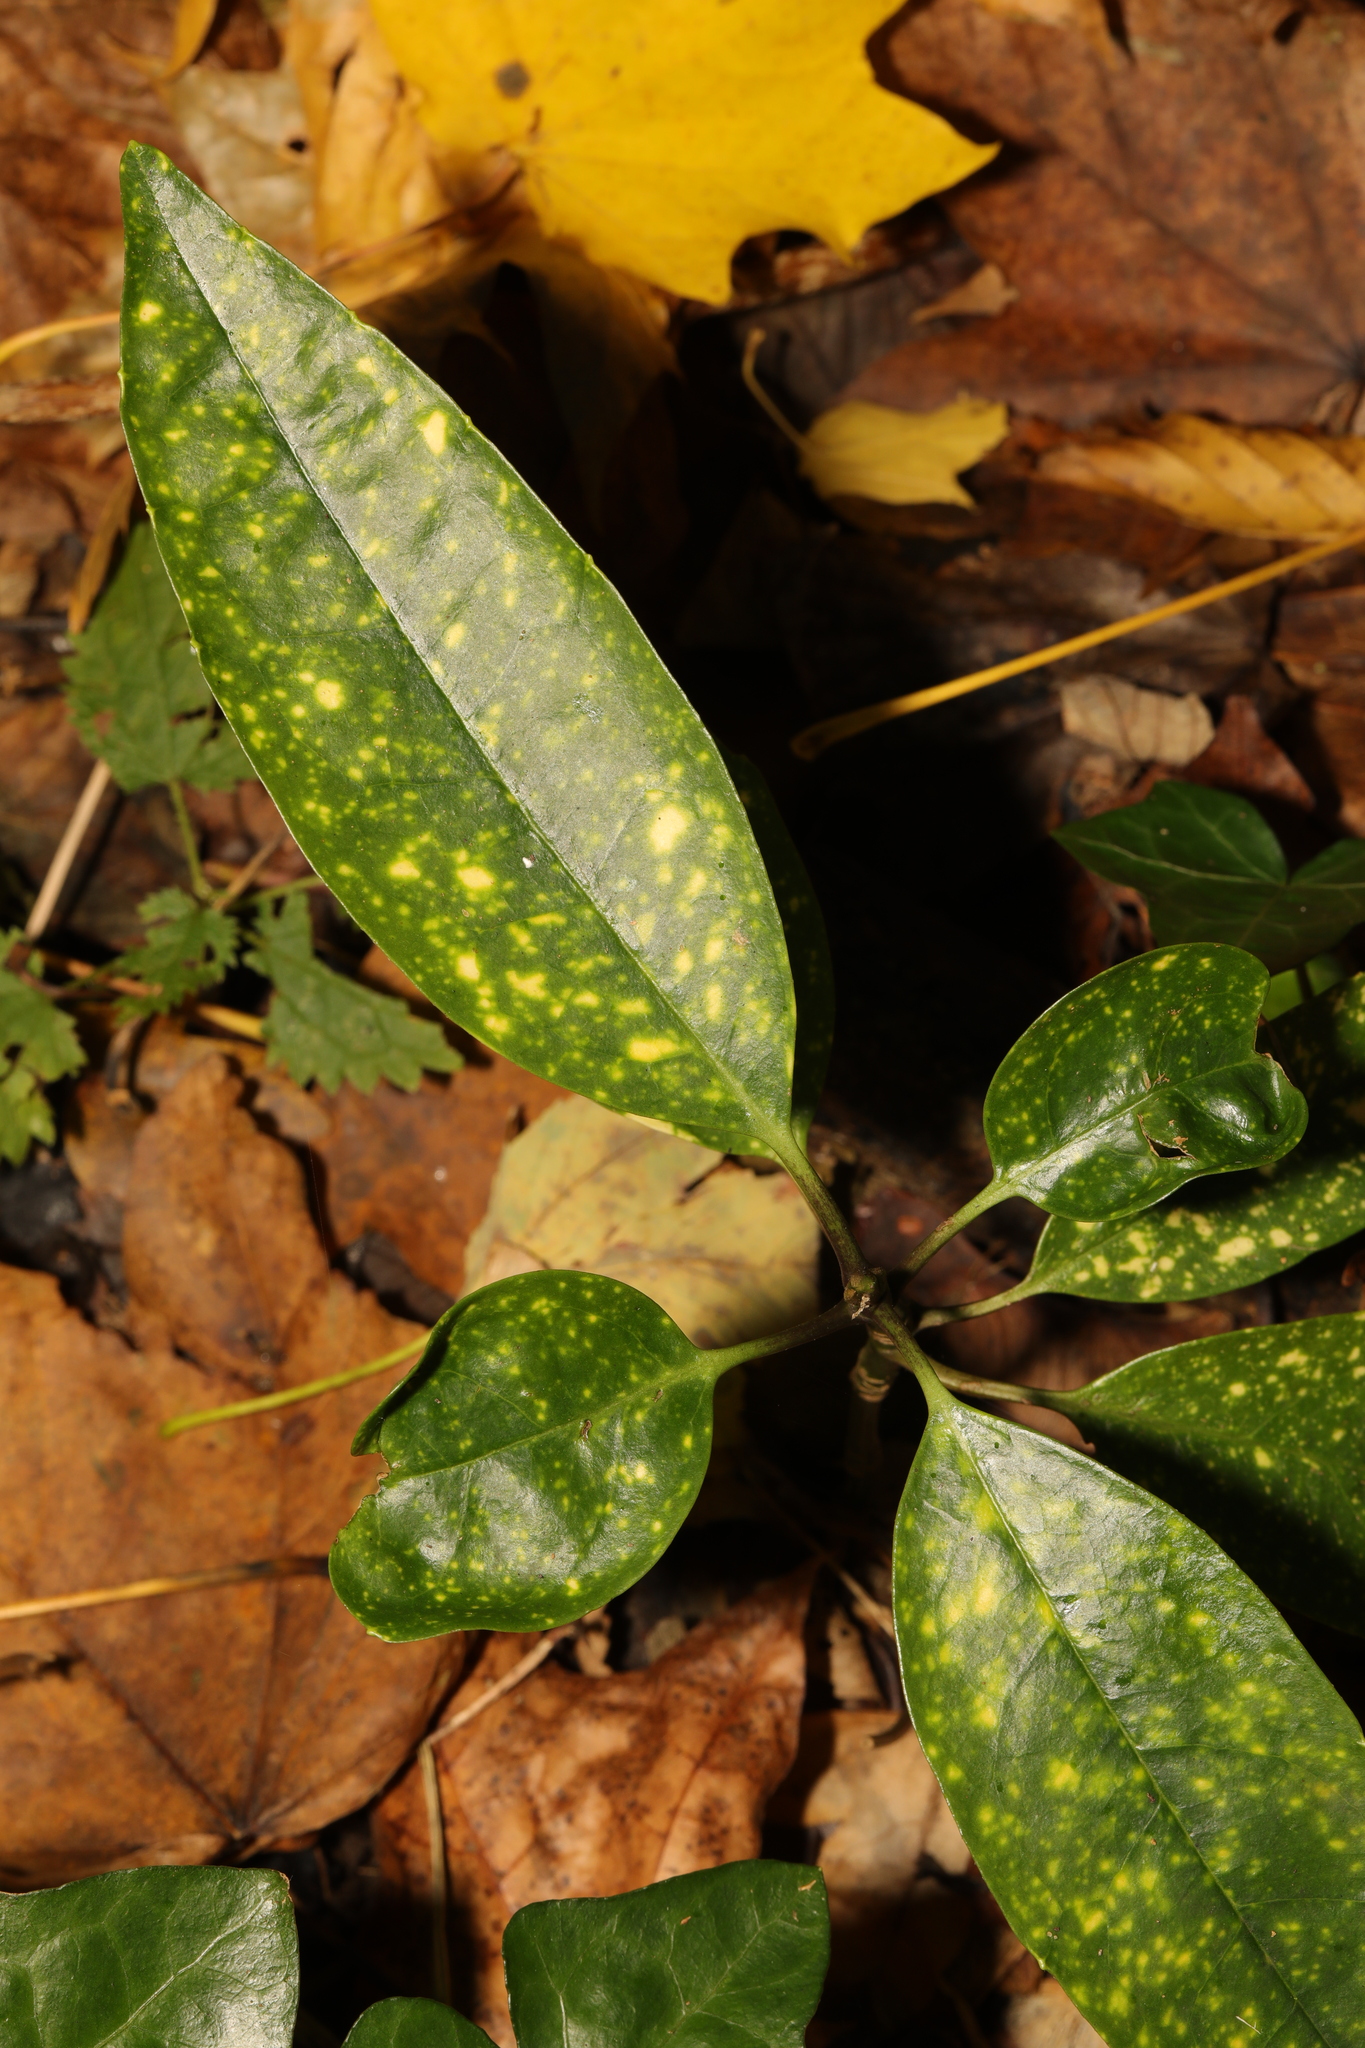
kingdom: Plantae
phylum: Tracheophyta
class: Magnoliopsida
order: Garryales
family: Garryaceae
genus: Aucuba
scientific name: Aucuba japonica
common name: Spotted-laurel
